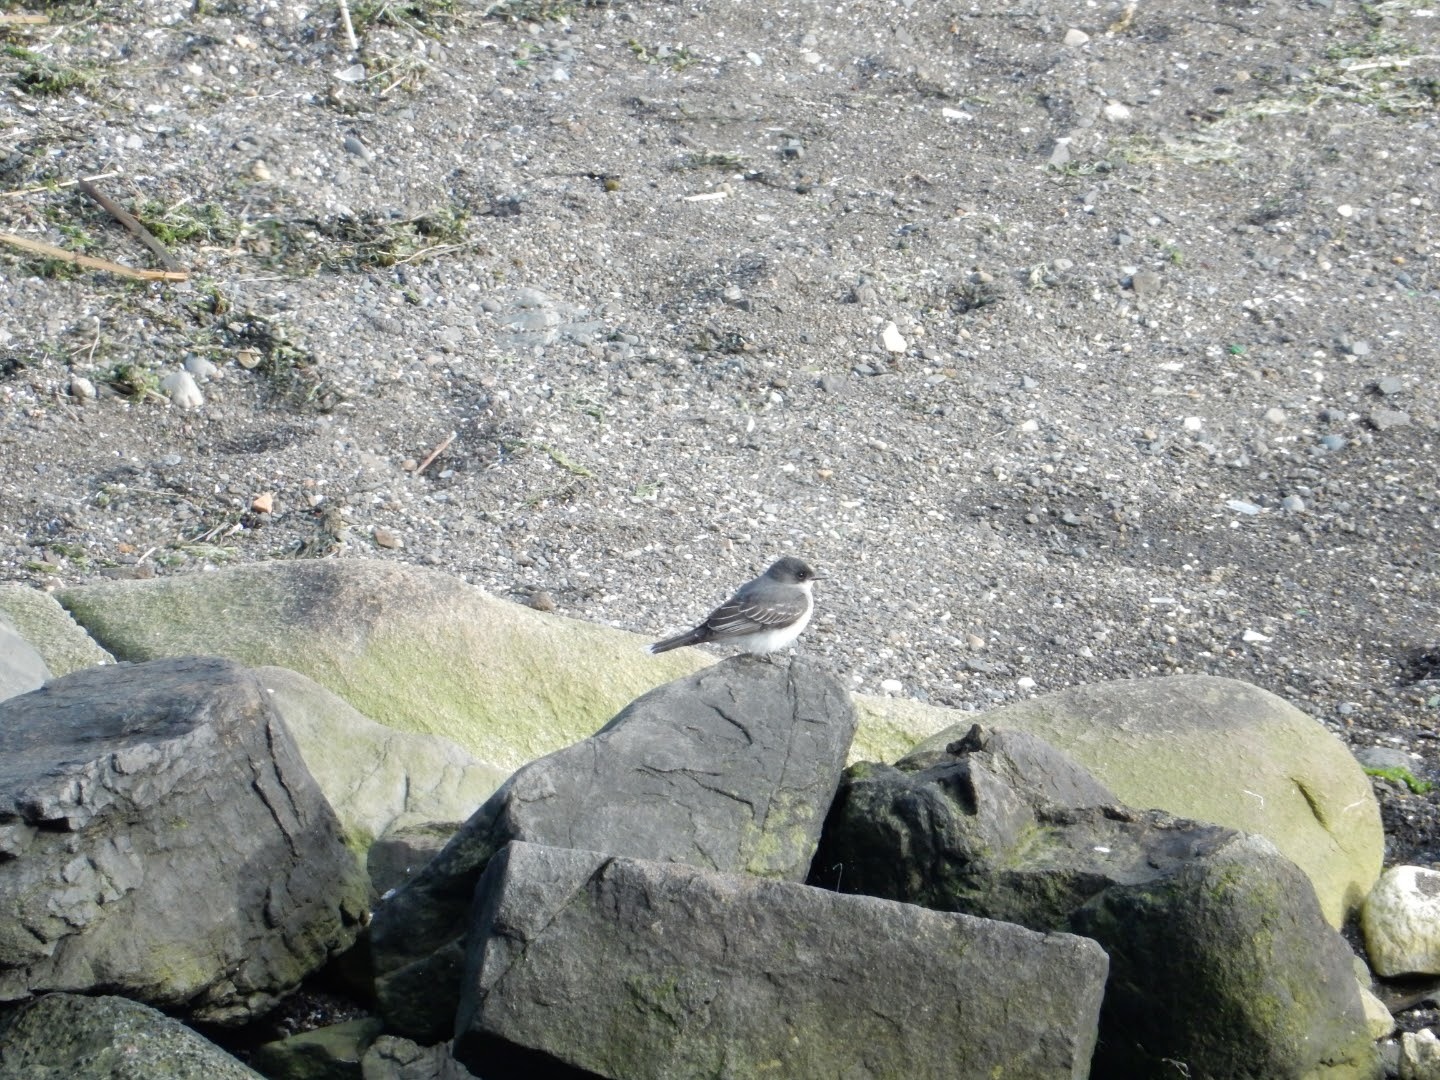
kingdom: Animalia
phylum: Chordata
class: Aves
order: Passeriformes
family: Tyrannidae
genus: Tyrannus
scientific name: Tyrannus tyrannus
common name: Eastern kingbird
